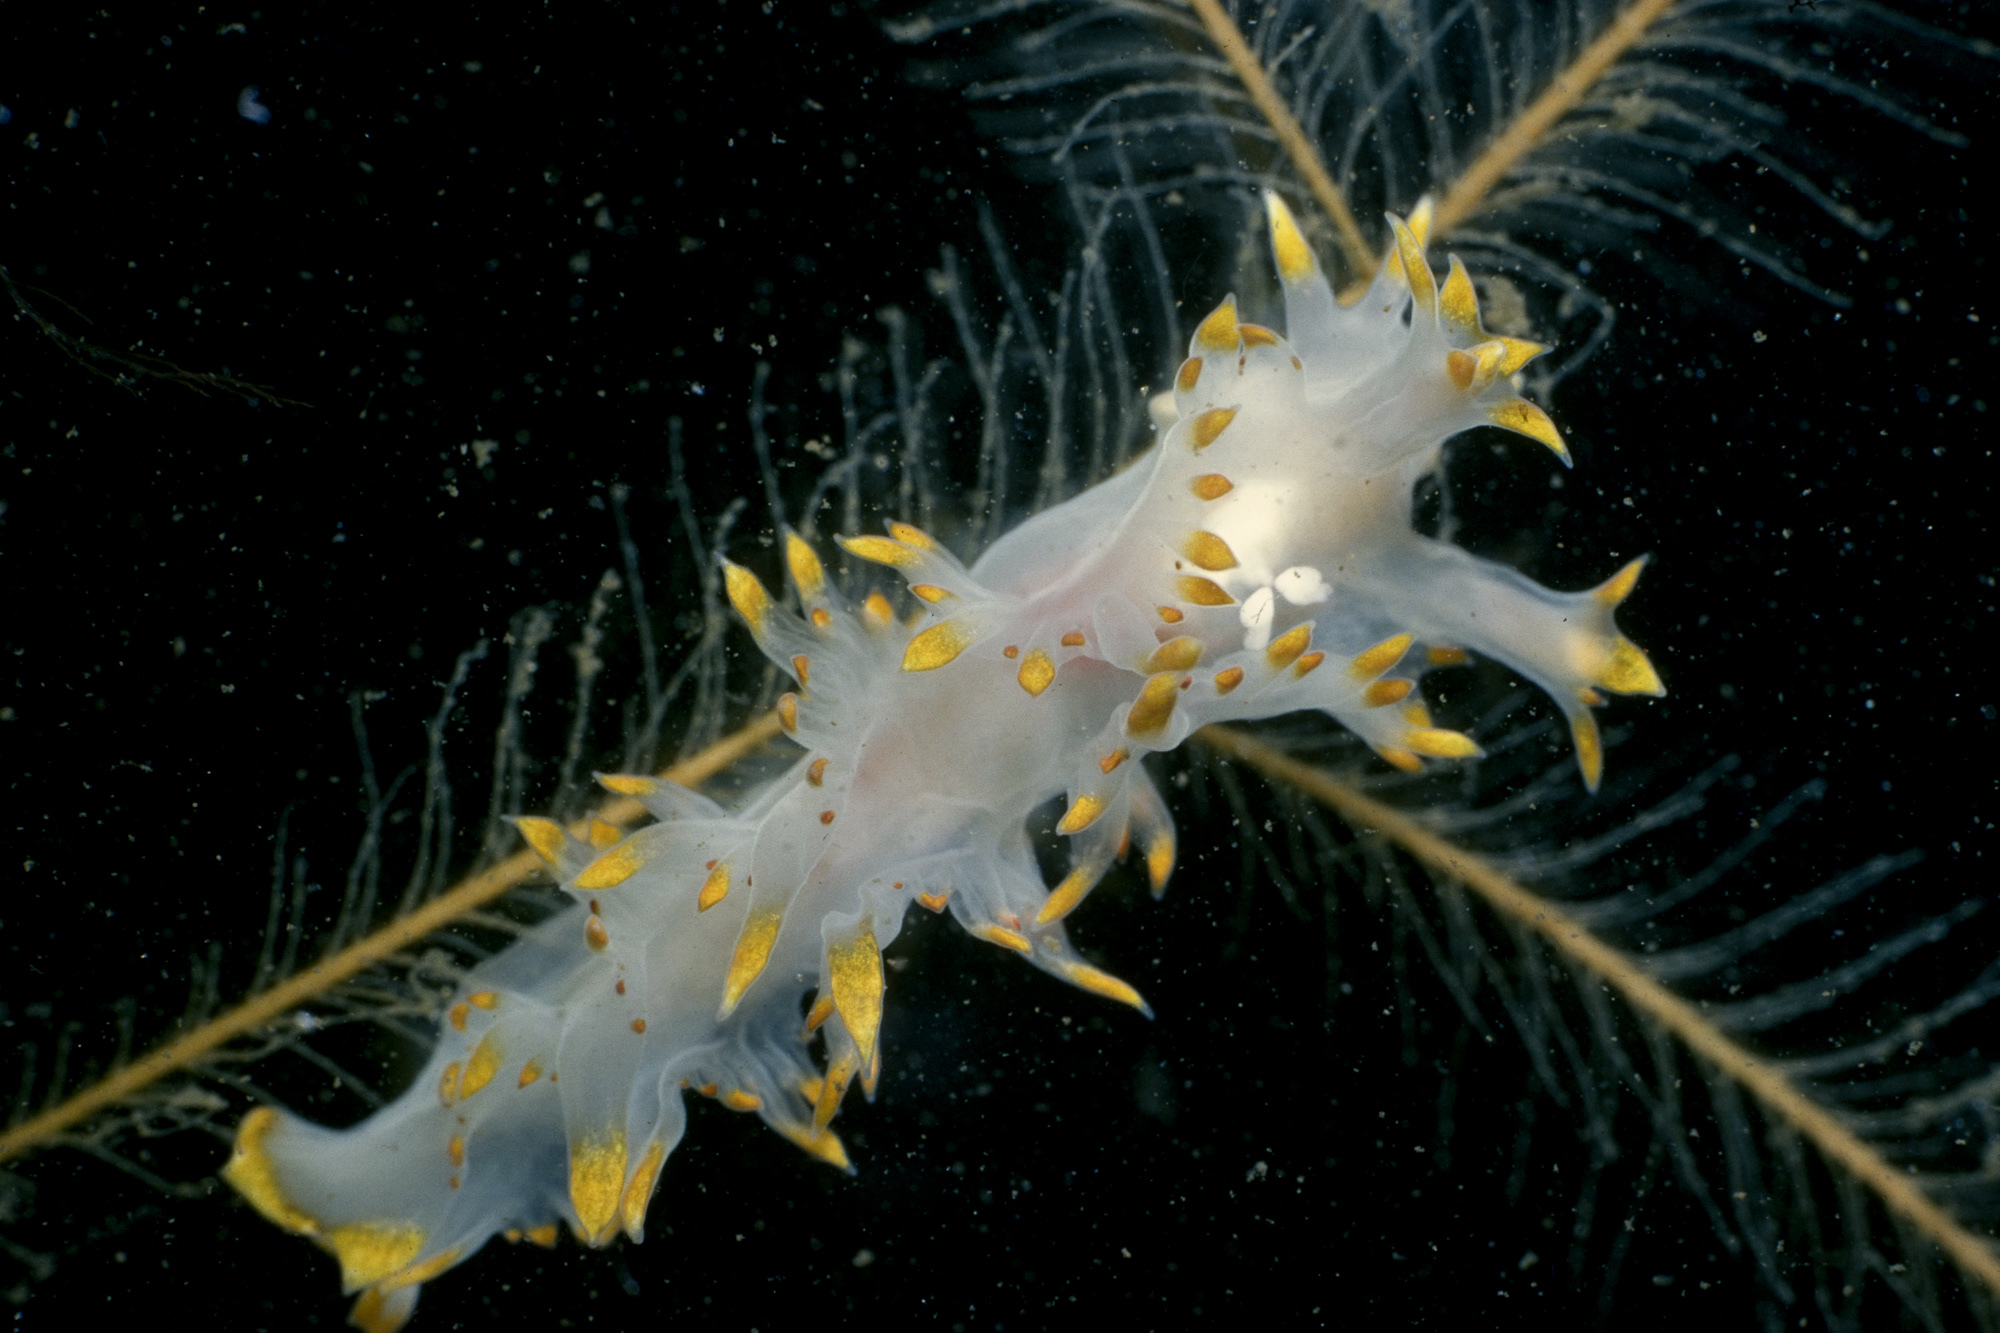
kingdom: Animalia
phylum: Mollusca
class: Gastropoda
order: Nudibranchia
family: Lomanotidae
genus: Lomanotus
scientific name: Lomanotus genei
